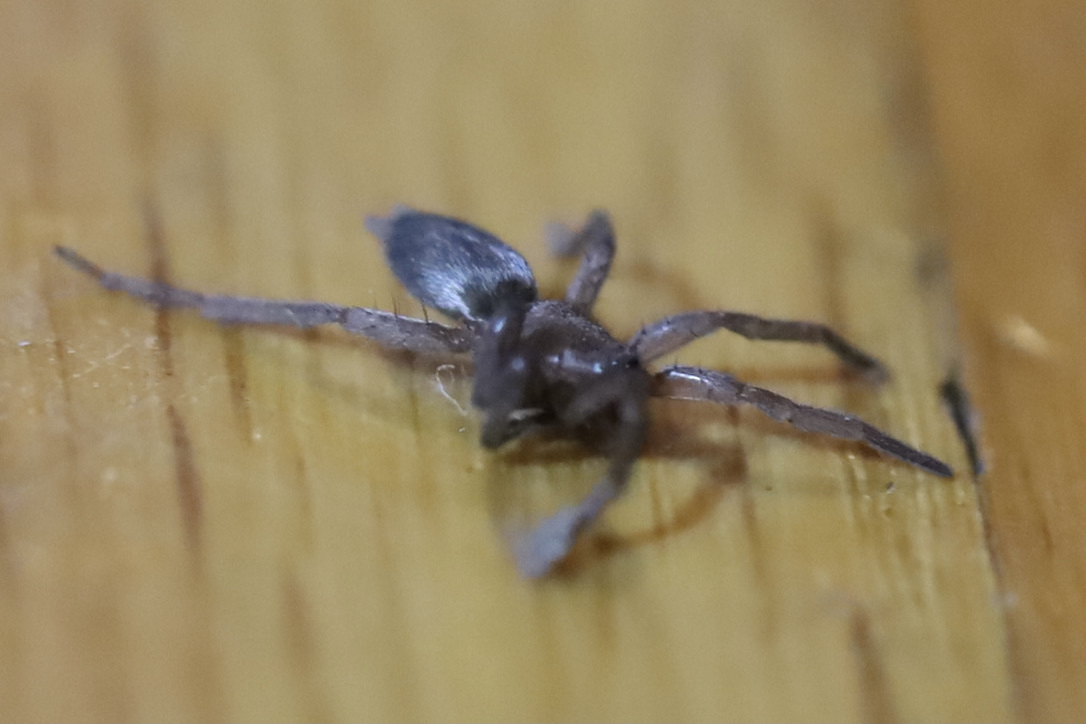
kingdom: Animalia
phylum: Arthropoda
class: Arachnida
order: Araneae
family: Gnaphosidae
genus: Scotophaeus
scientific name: Scotophaeus blackwalli
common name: Mouse spider
